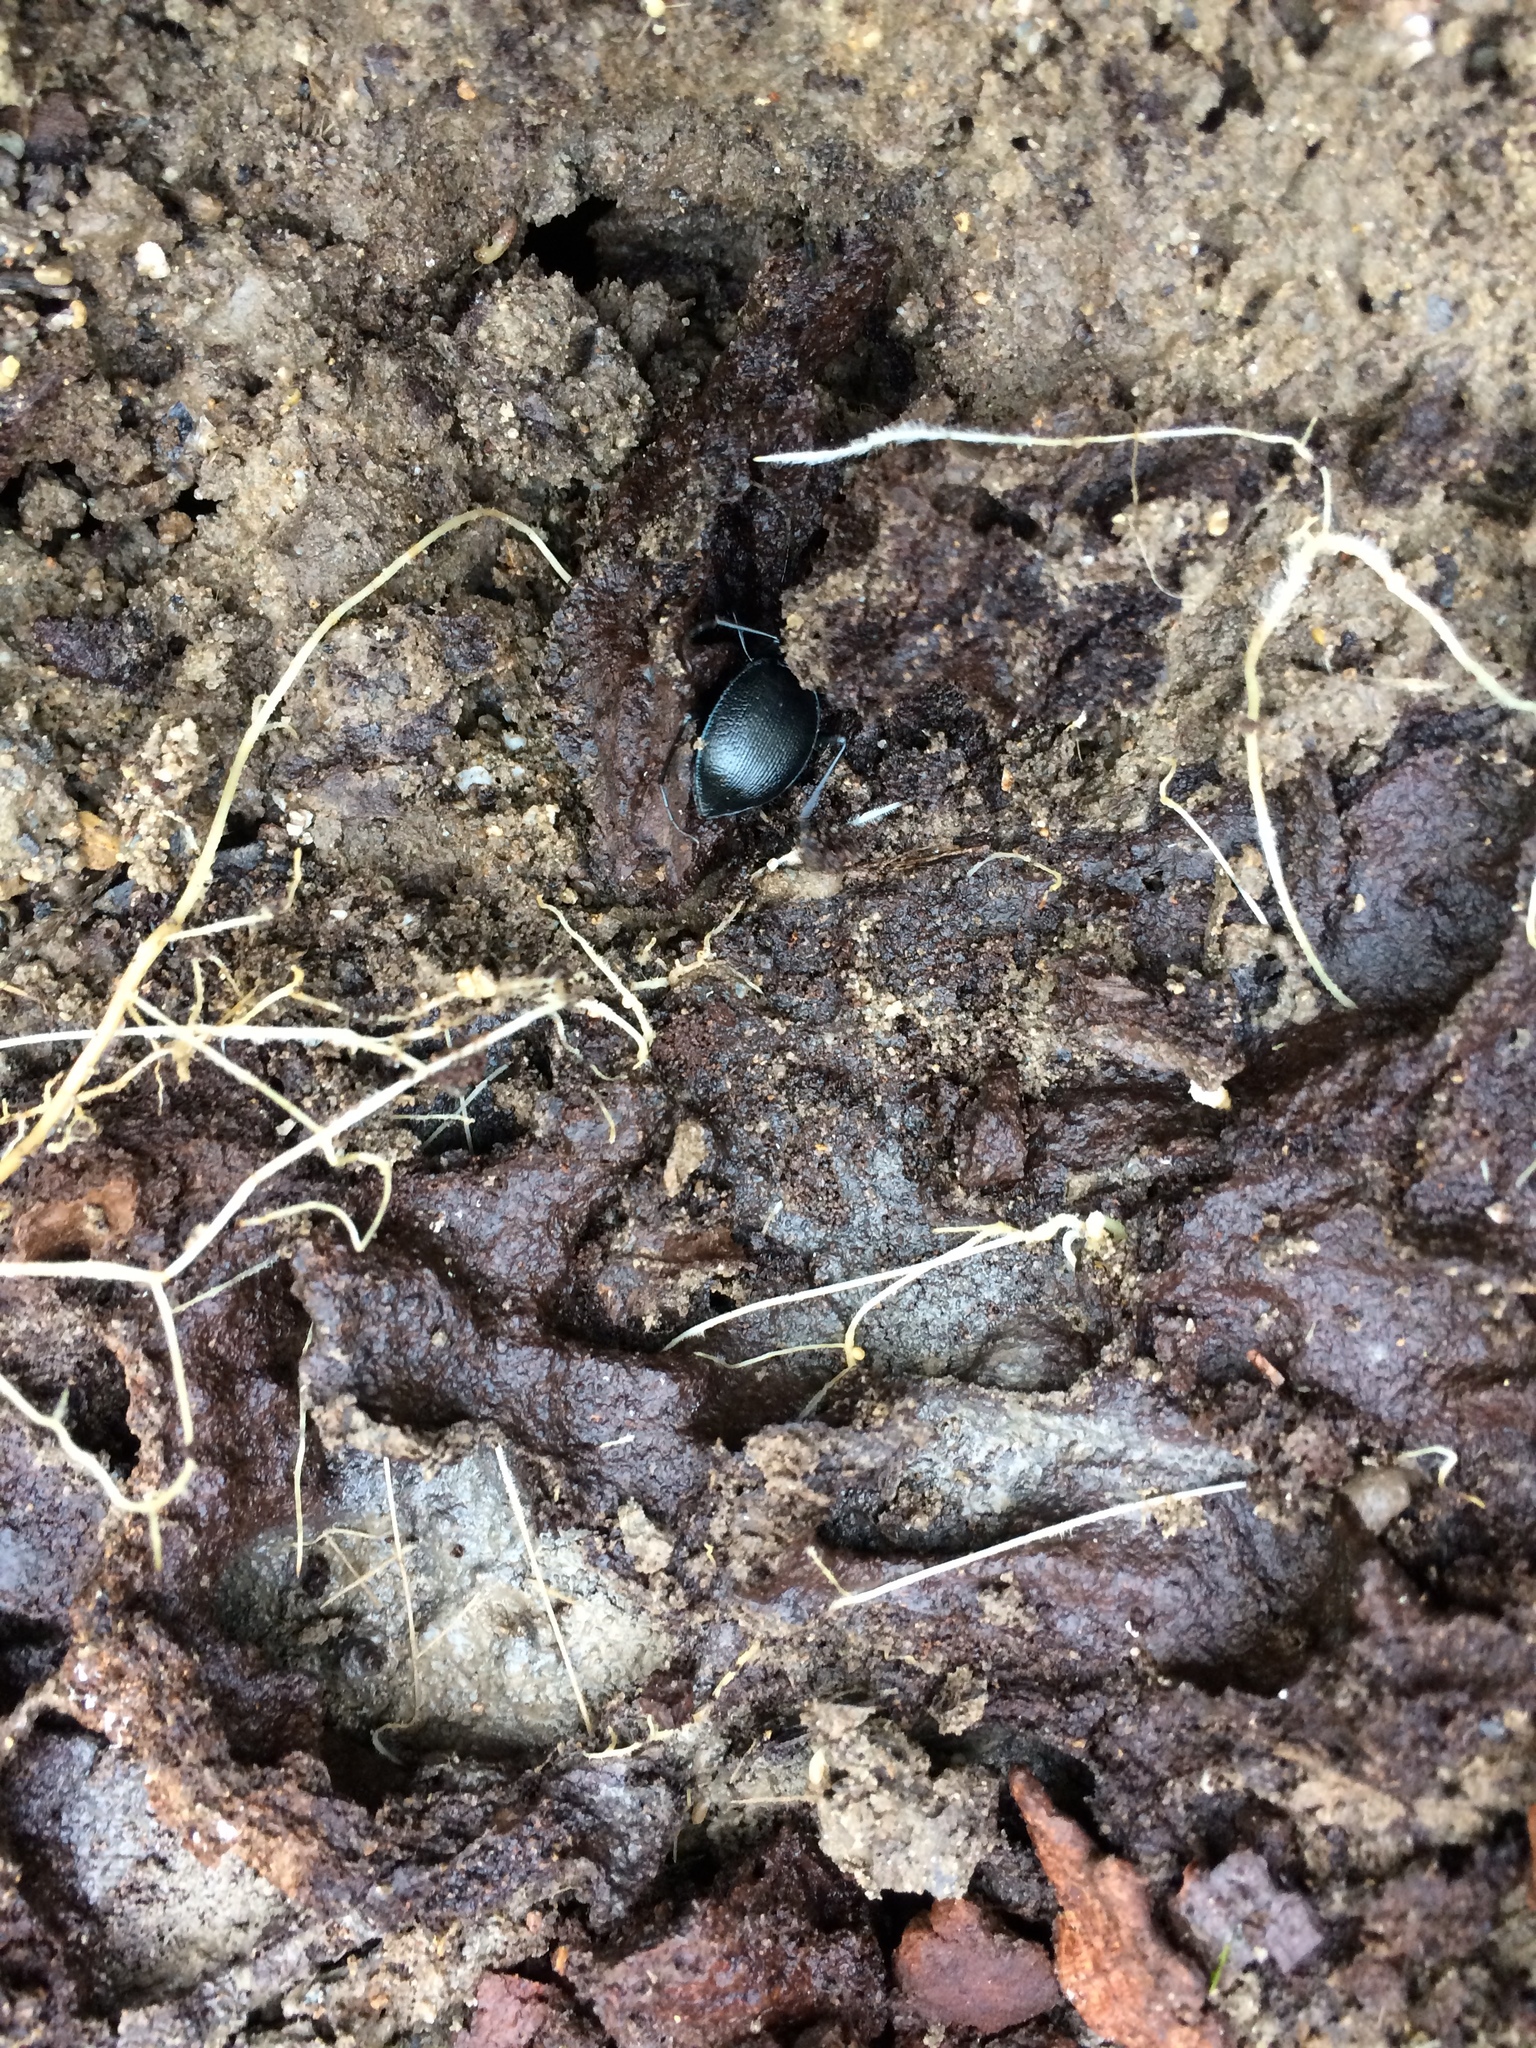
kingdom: Animalia
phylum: Arthropoda
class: Insecta
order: Coleoptera
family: Carabidae
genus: Scaphinotus
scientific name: Scaphinotus interruptus
